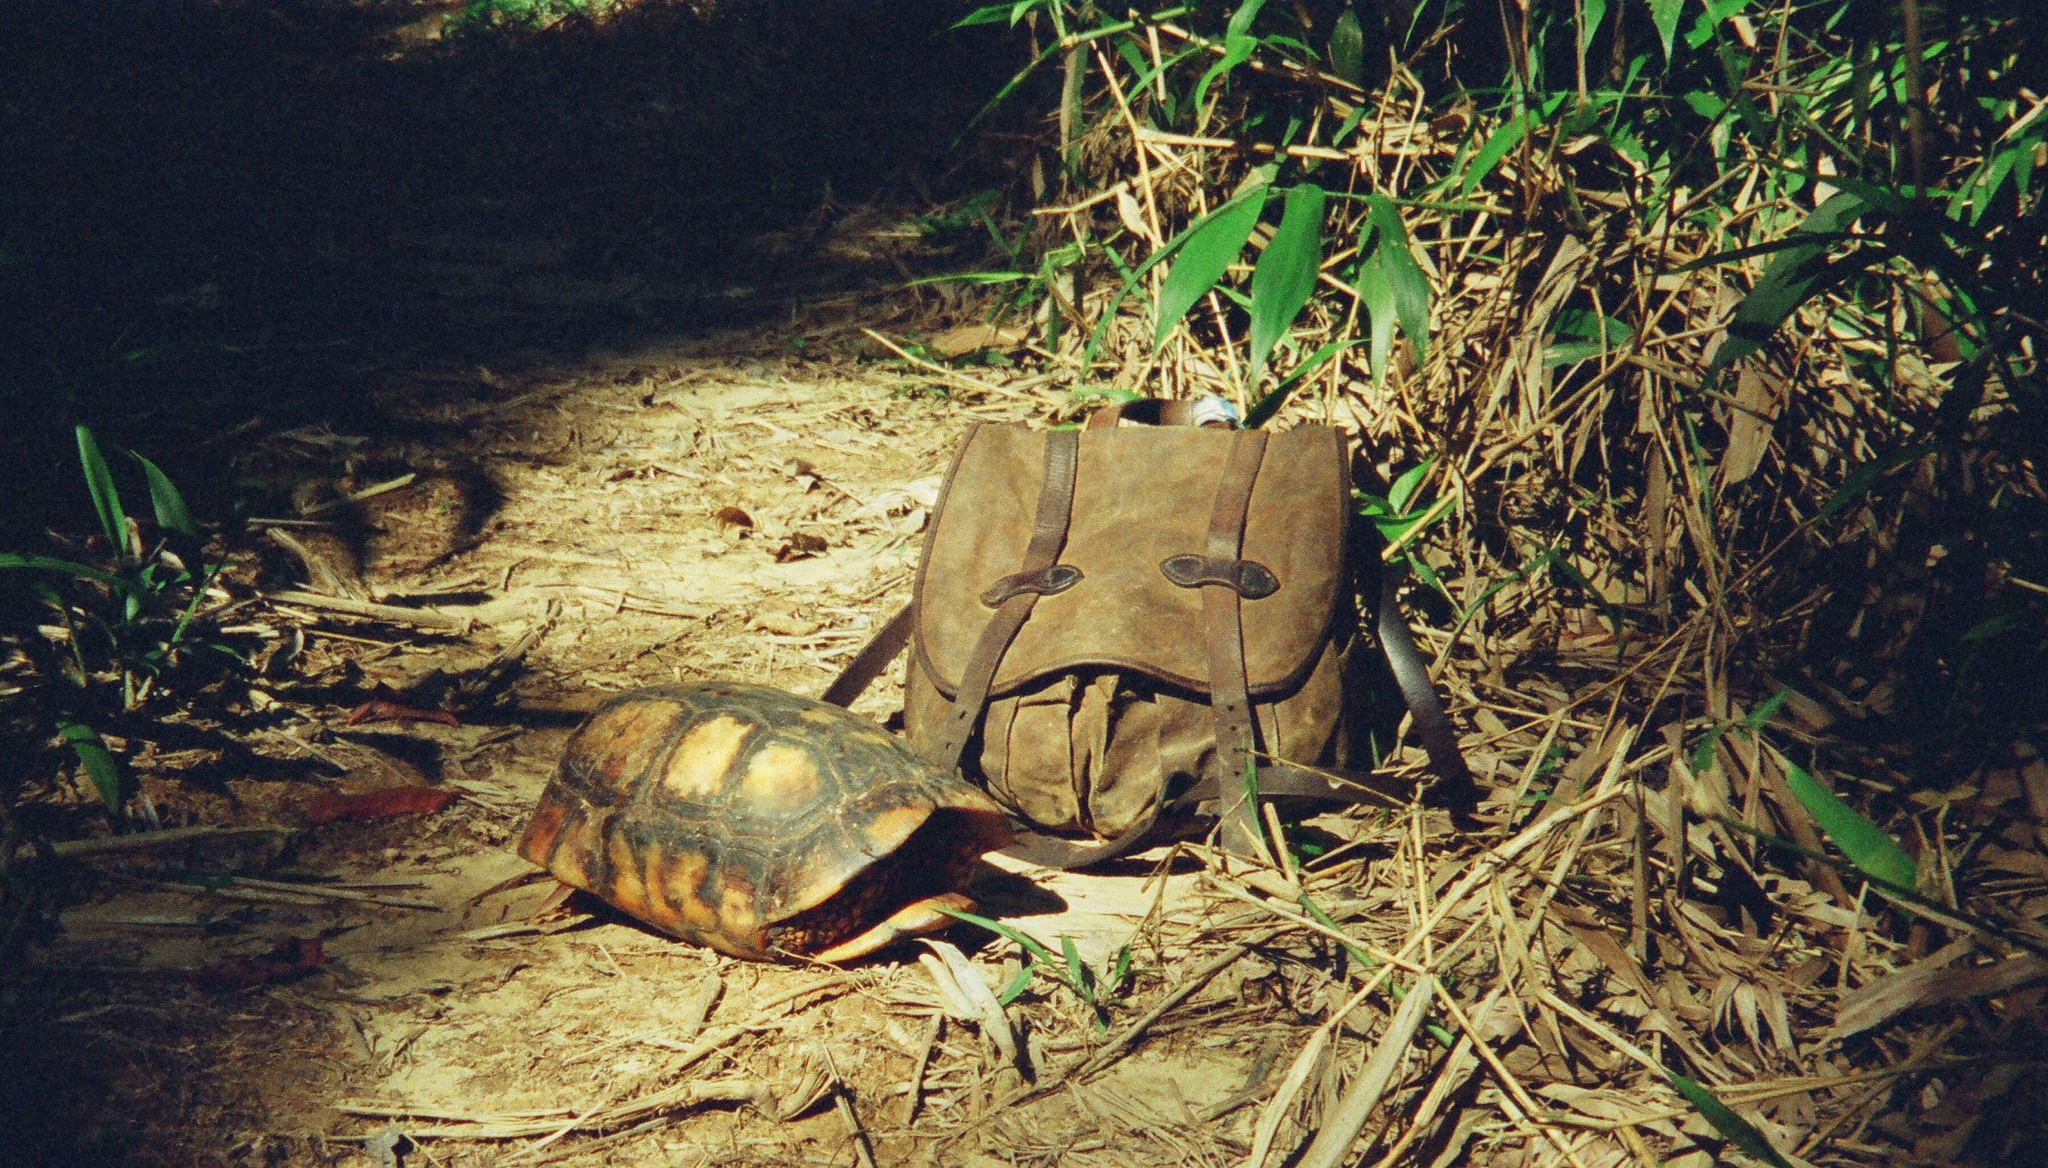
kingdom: Animalia
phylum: Chordata
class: Testudines
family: Testudinidae
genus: Chelonoidis
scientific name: Chelonoidis denticulatus
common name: Yellow-footed tortoise
